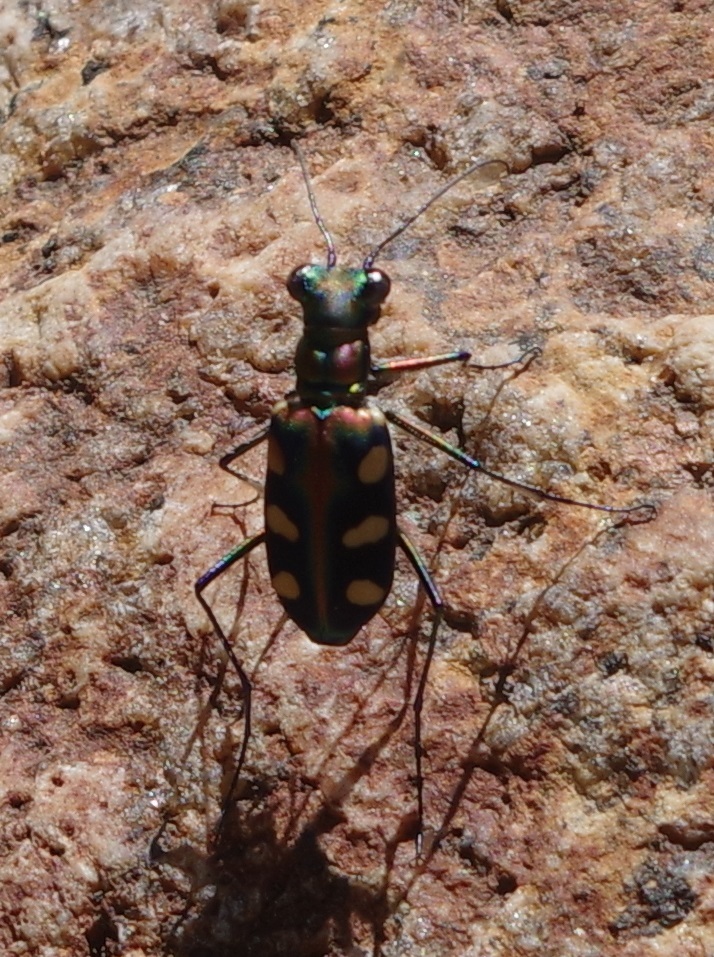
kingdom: Animalia
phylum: Arthropoda
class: Insecta
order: Coleoptera
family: Carabidae
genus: Cicindela
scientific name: Cicindela aurulenta
